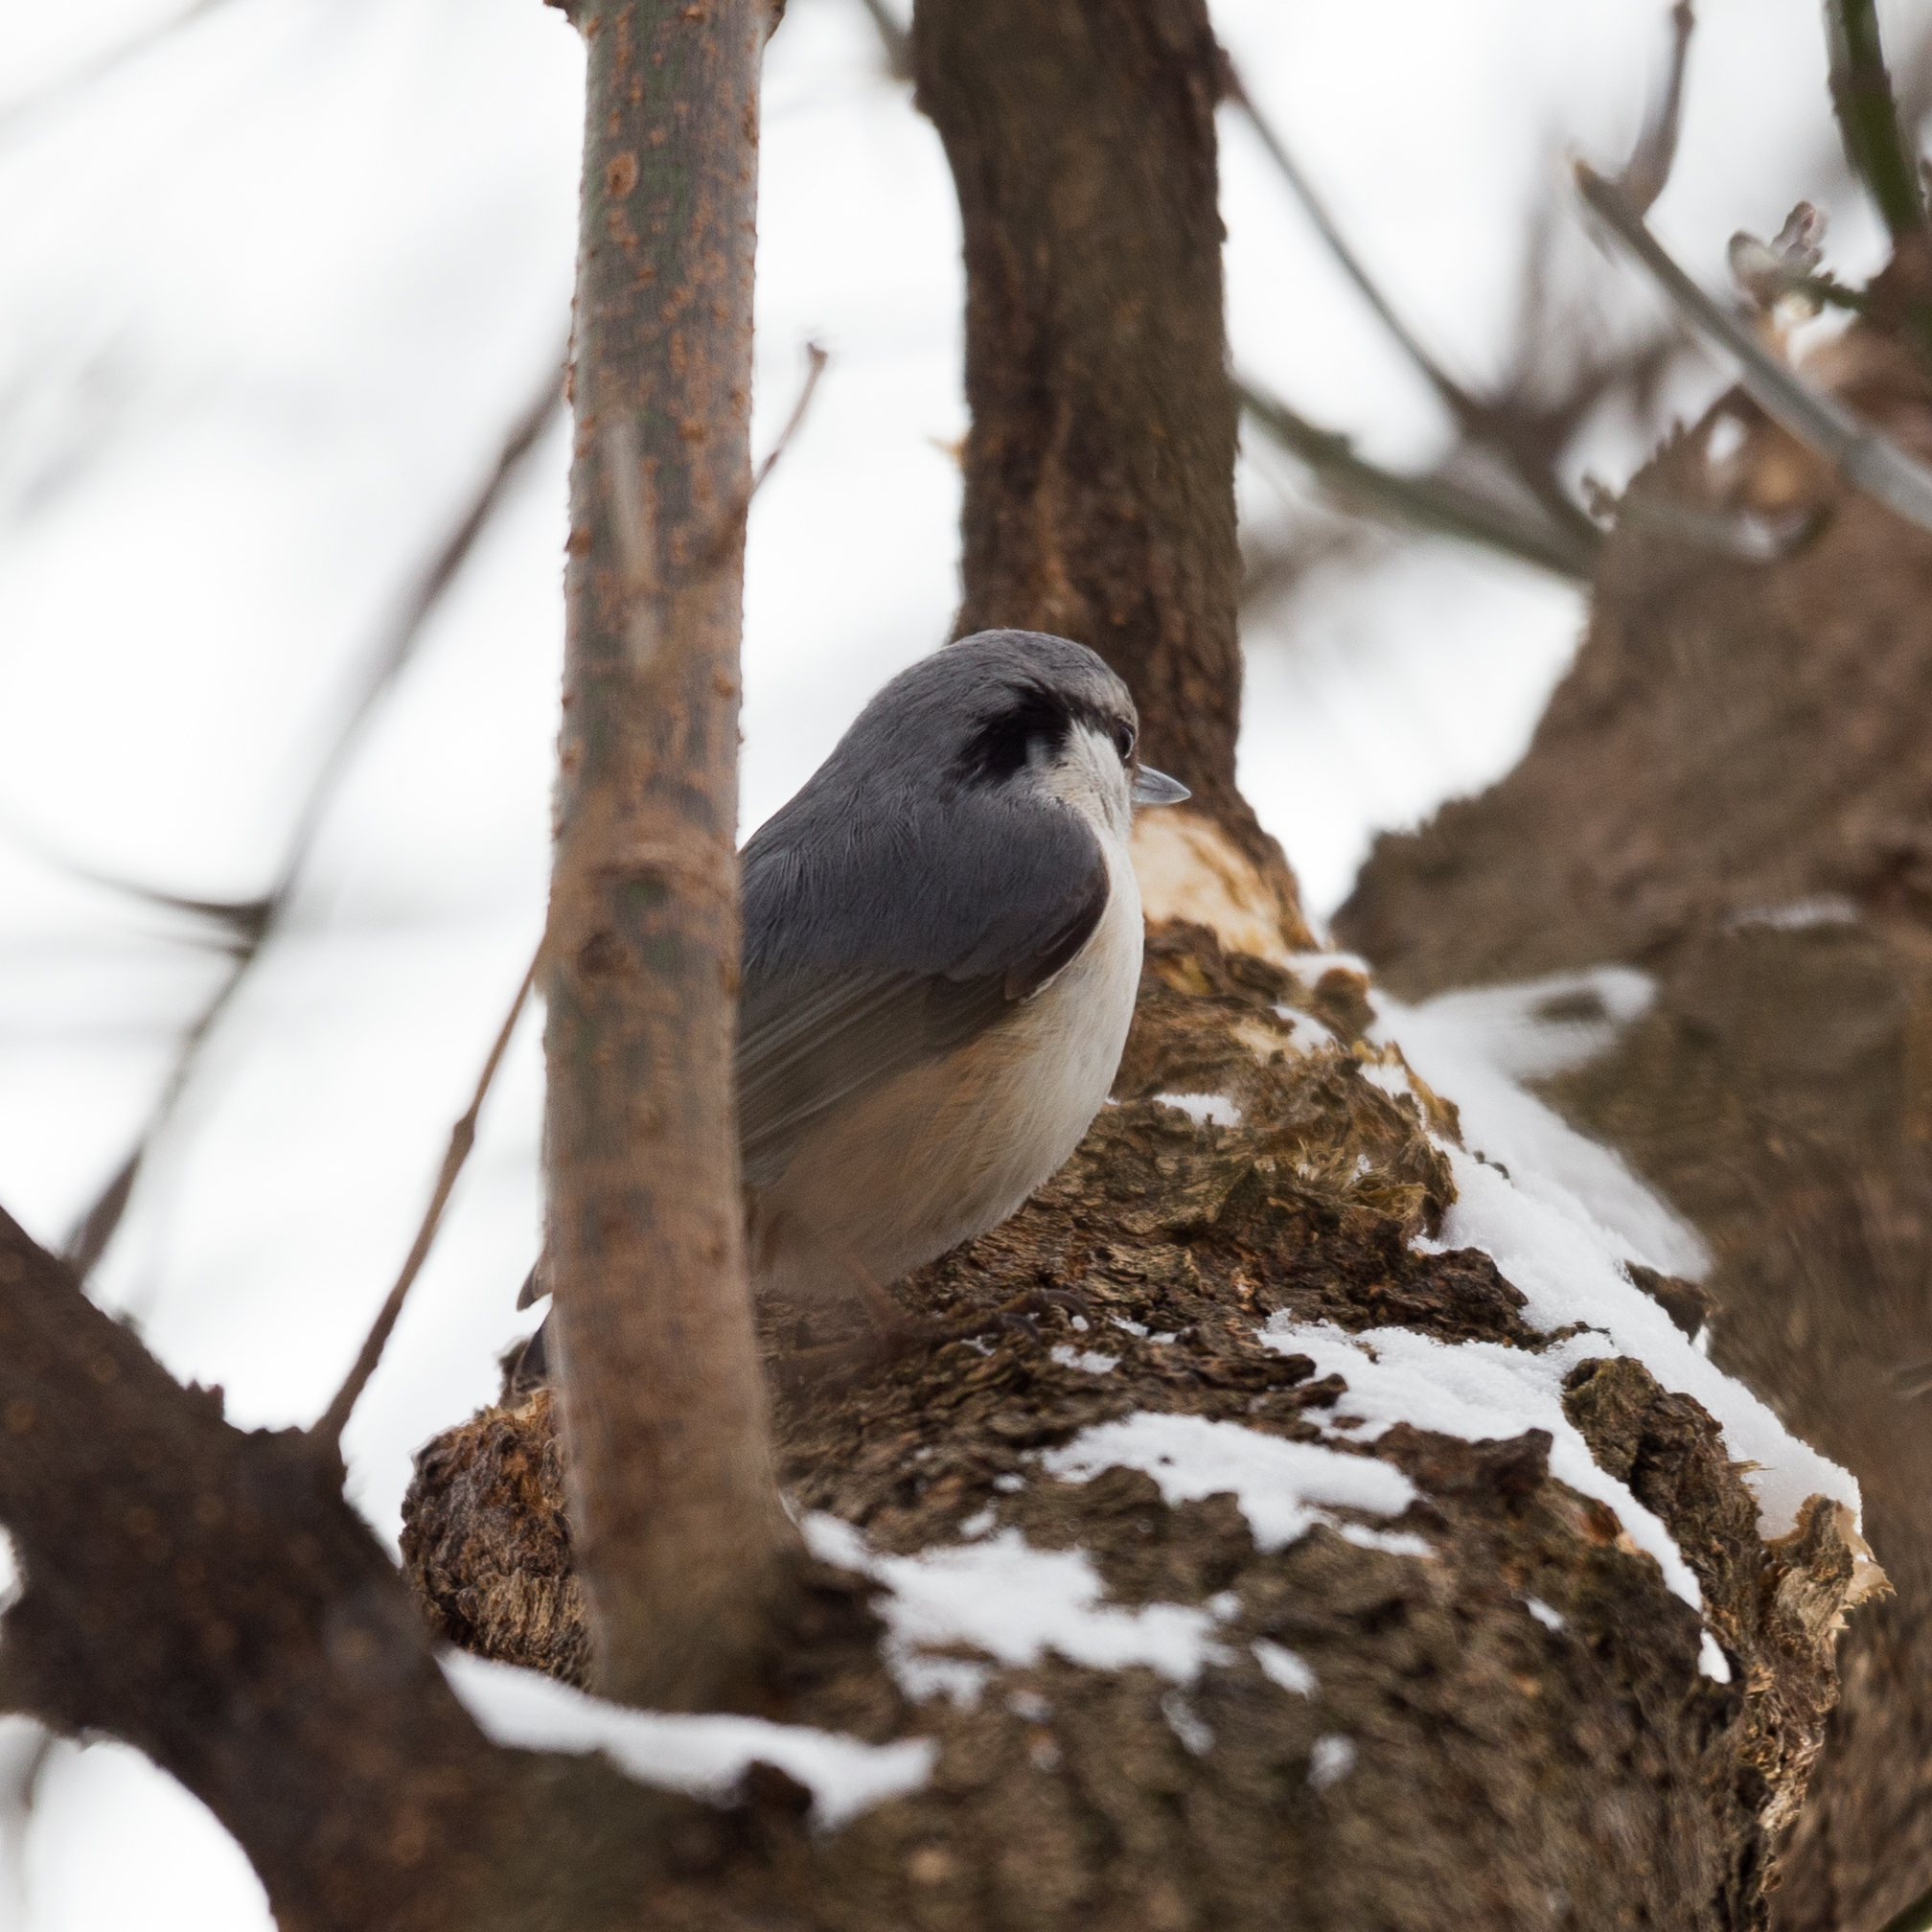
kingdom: Animalia
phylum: Chordata
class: Aves
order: Passeriformes
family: Sittidae
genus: Sitta
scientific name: Sitta europaea
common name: Eurasian nuthatch
